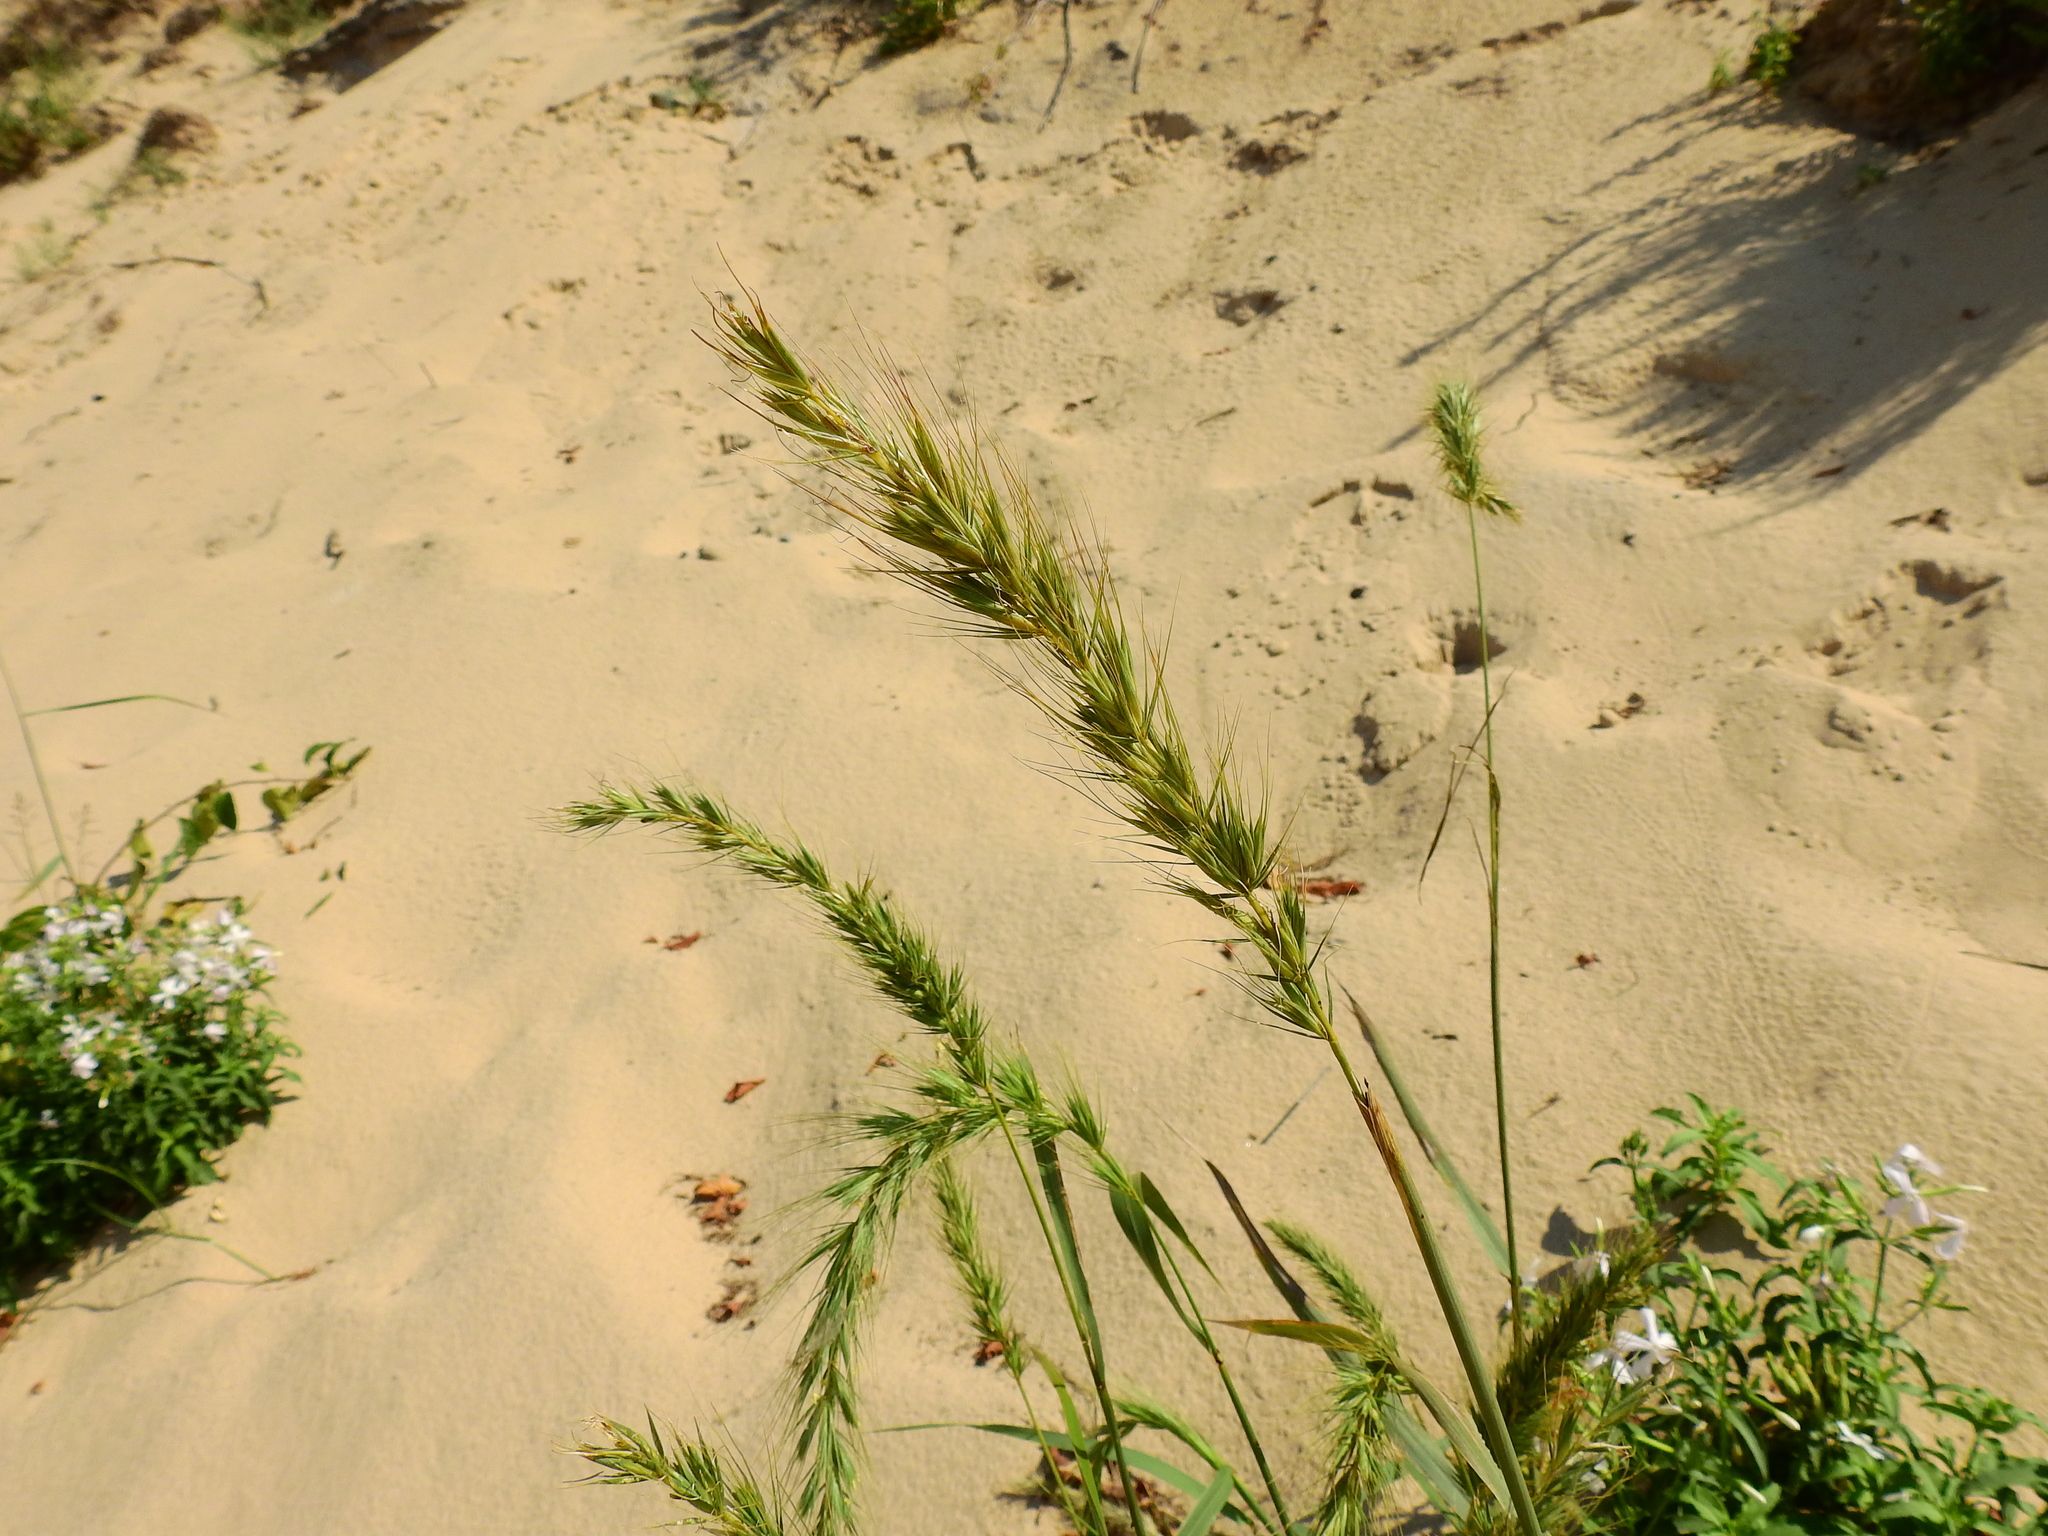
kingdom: Plantae
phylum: Tracheophyta
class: Liliopsida
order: Poales
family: Poaceae
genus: Elymus
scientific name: Elymus canadensis
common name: Canada wild rye
